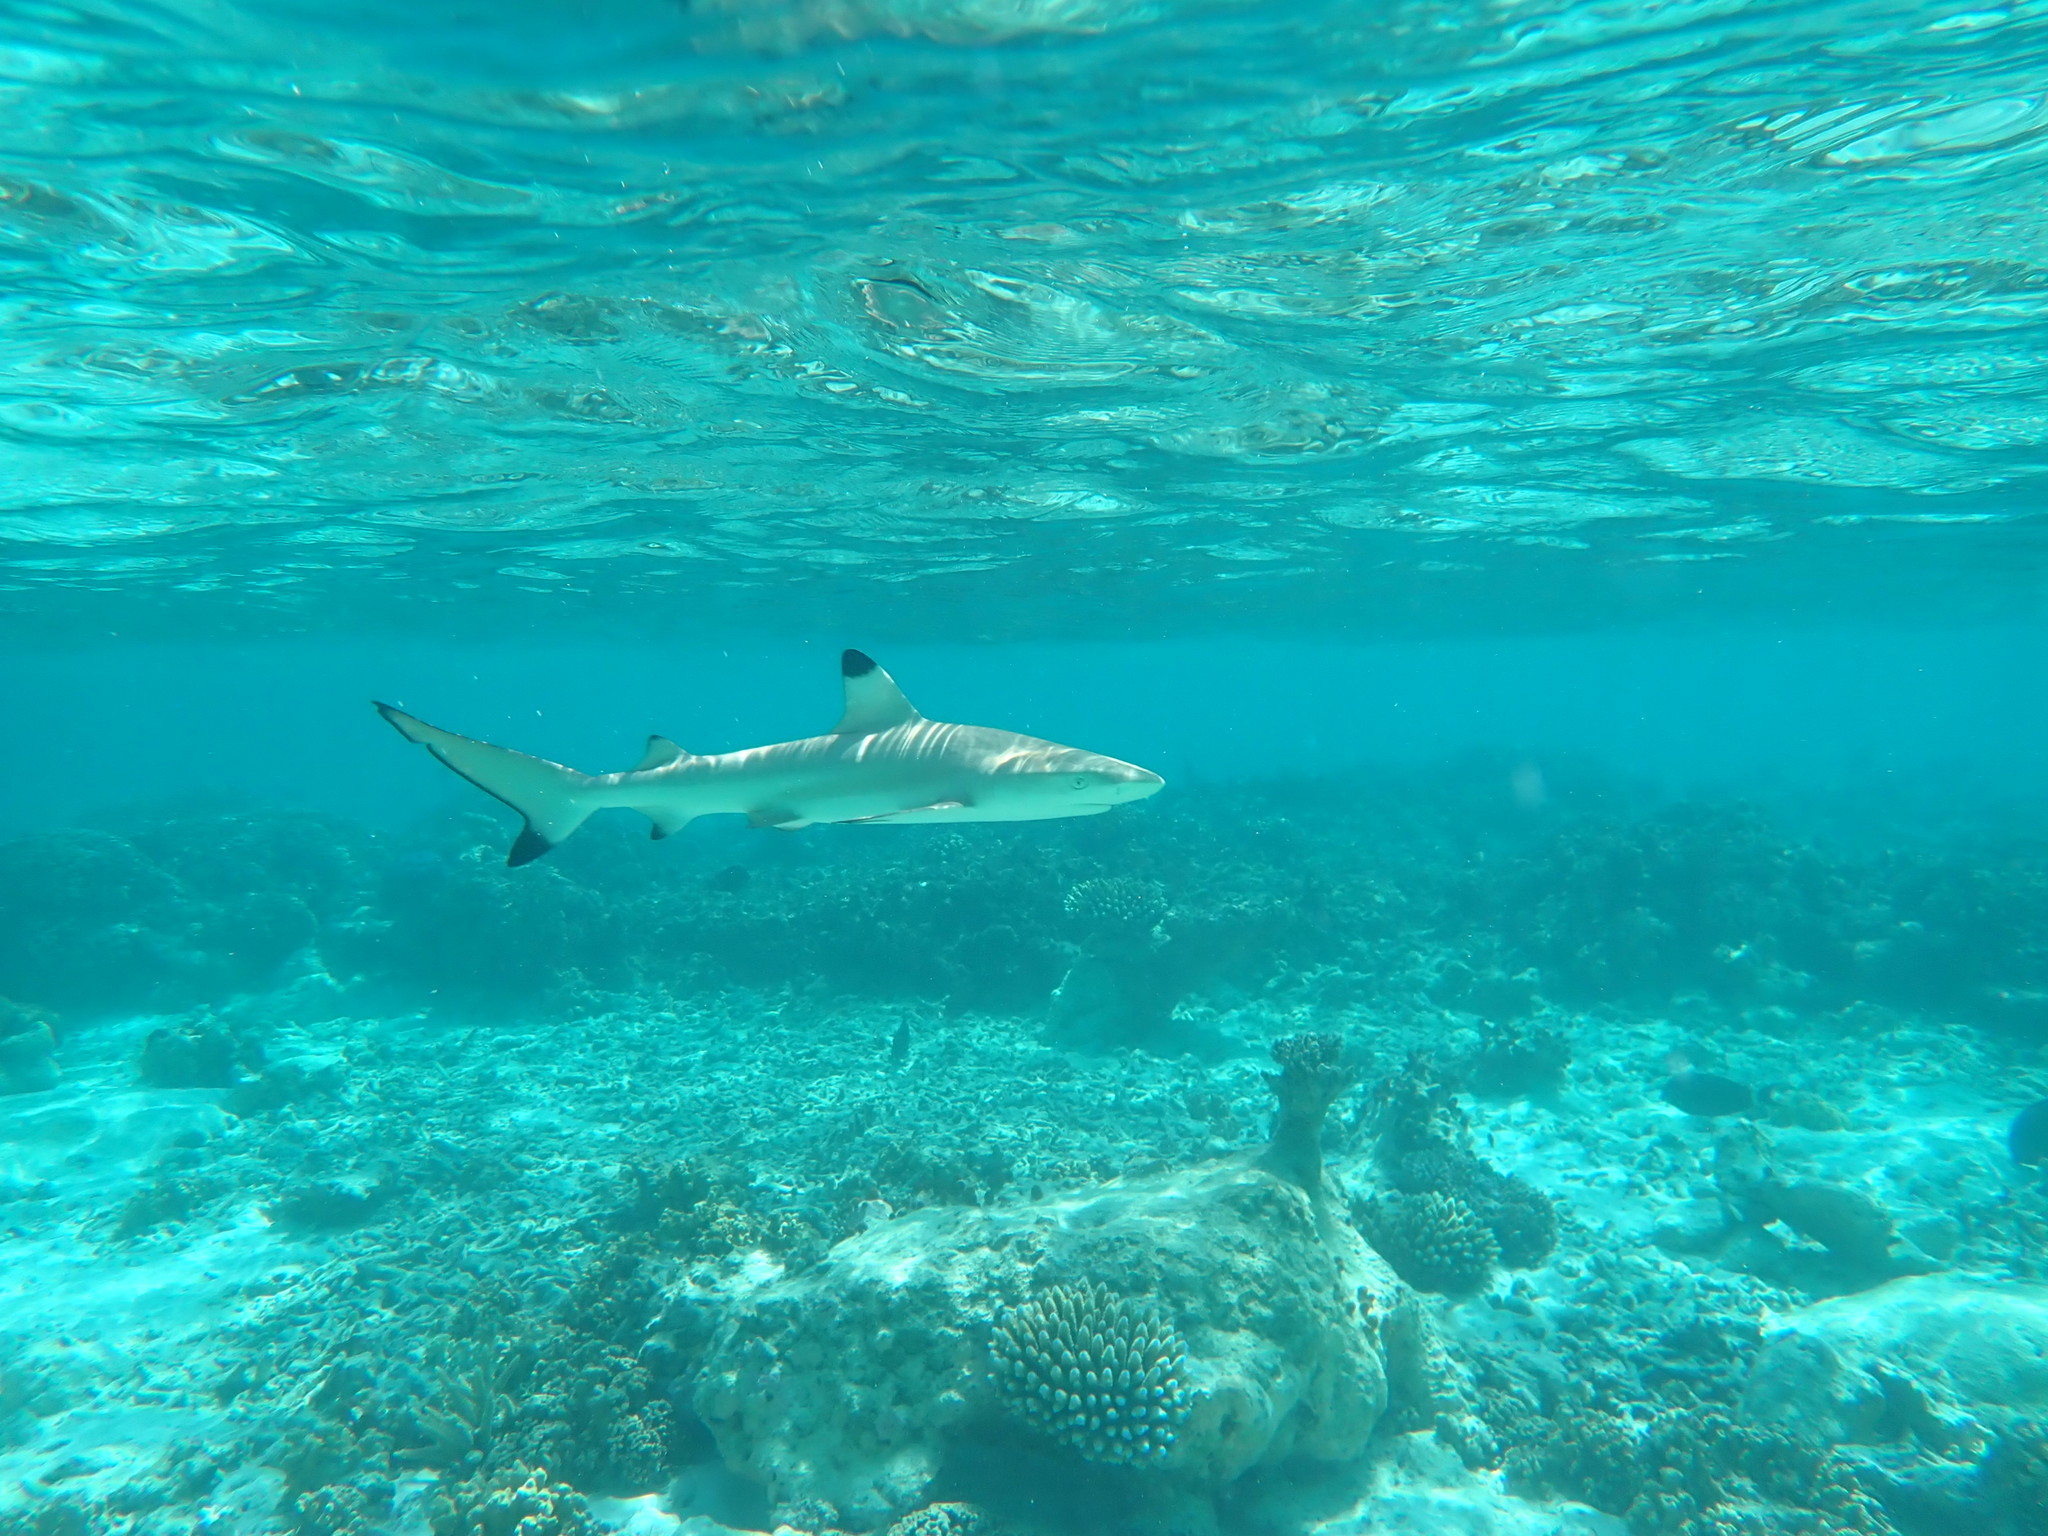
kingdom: Animalia
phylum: Chordata
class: Elasmobranchii
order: Carcharhiniformes
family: Carcharhinidae
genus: Carcharhinus
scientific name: Carcharhinus melanopterus
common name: Blacktip reef shark
